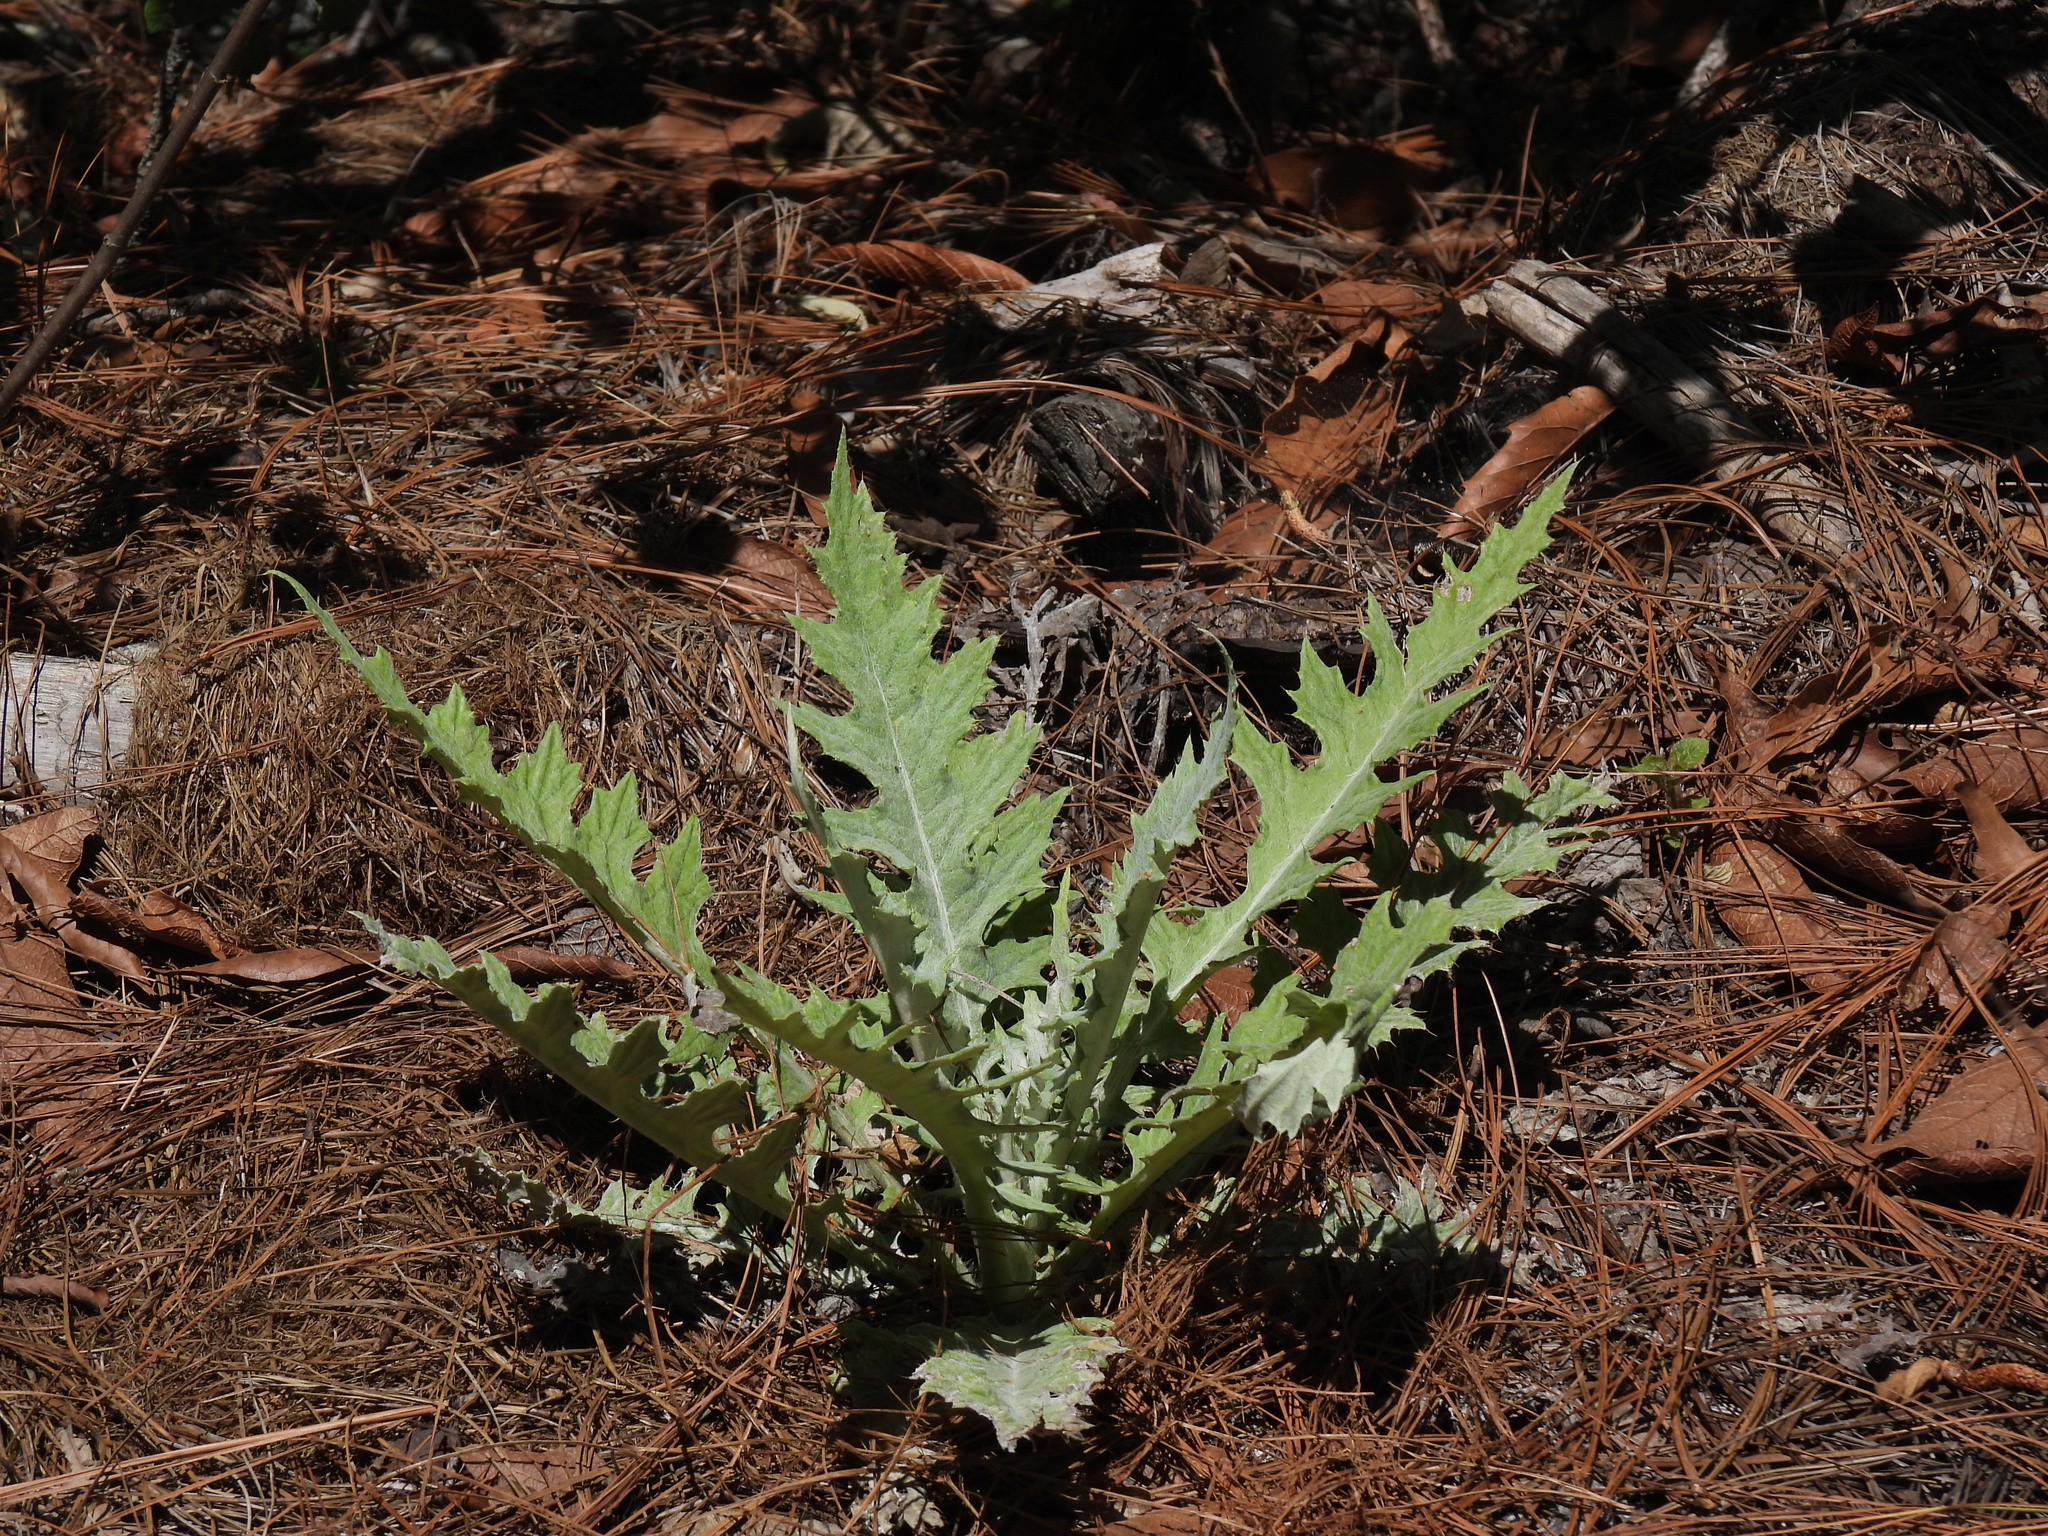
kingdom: Plantae
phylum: Tracheophyta
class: Magnoliopsida
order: Asterales
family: Asteraceae
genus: Cirsium
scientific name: Cirsium pringlei
